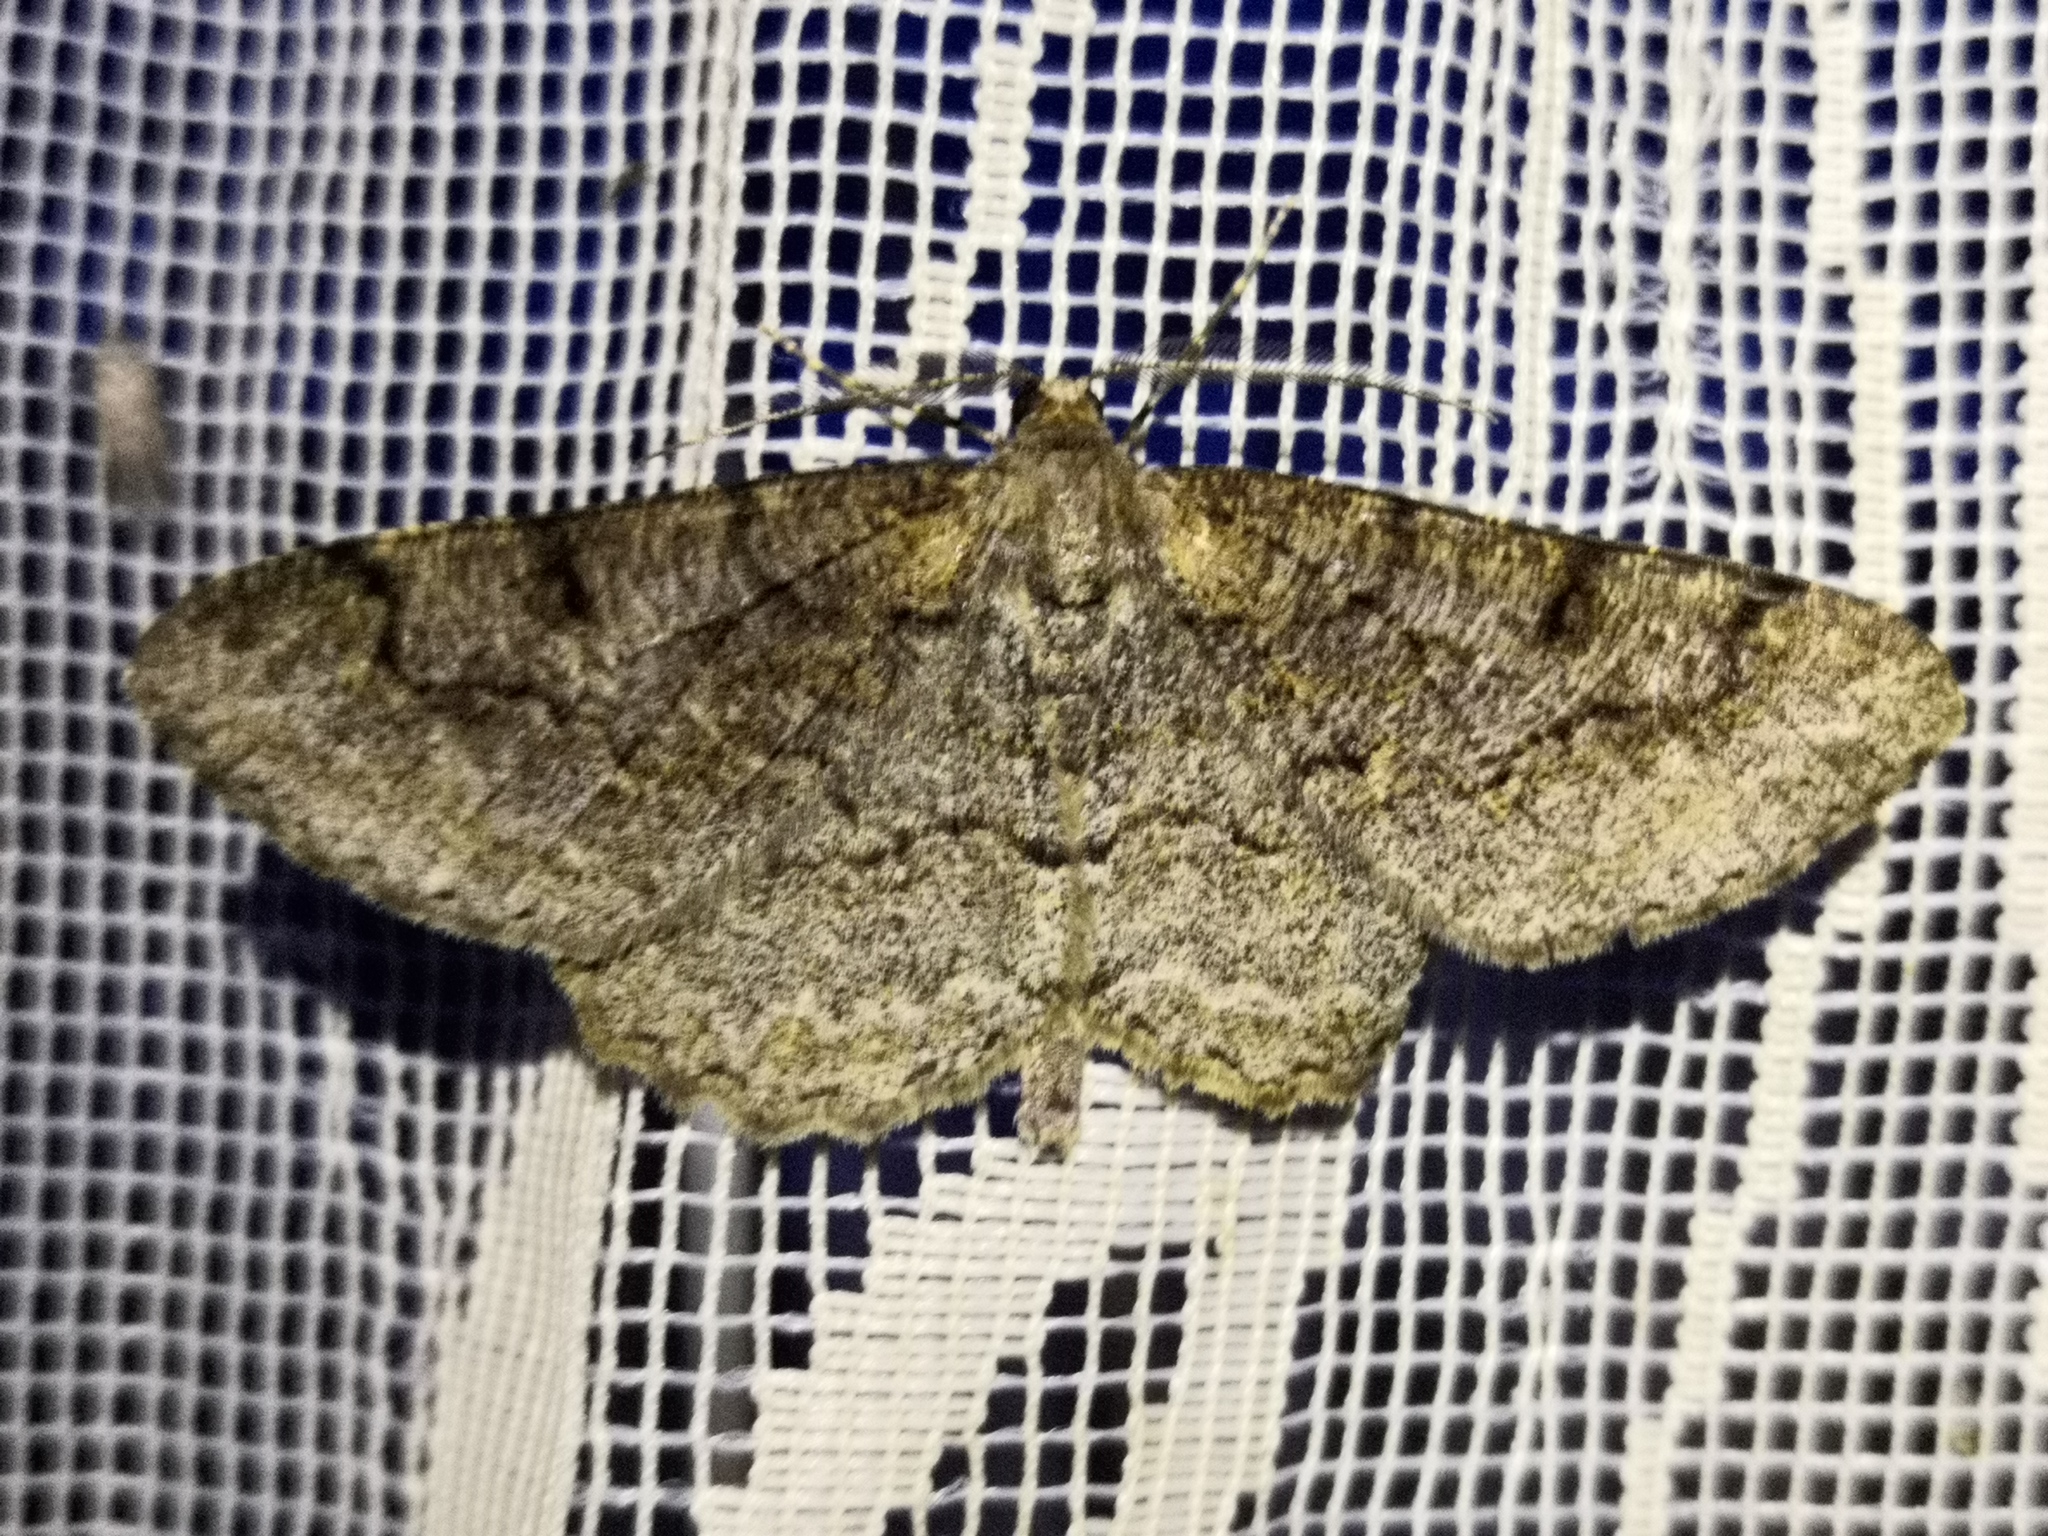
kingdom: Animalia
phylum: Arthropoda
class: Insecta
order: Lepidoptera
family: Geometridae
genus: Alcis
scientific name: Alcis repandata
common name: Mottled beauty
